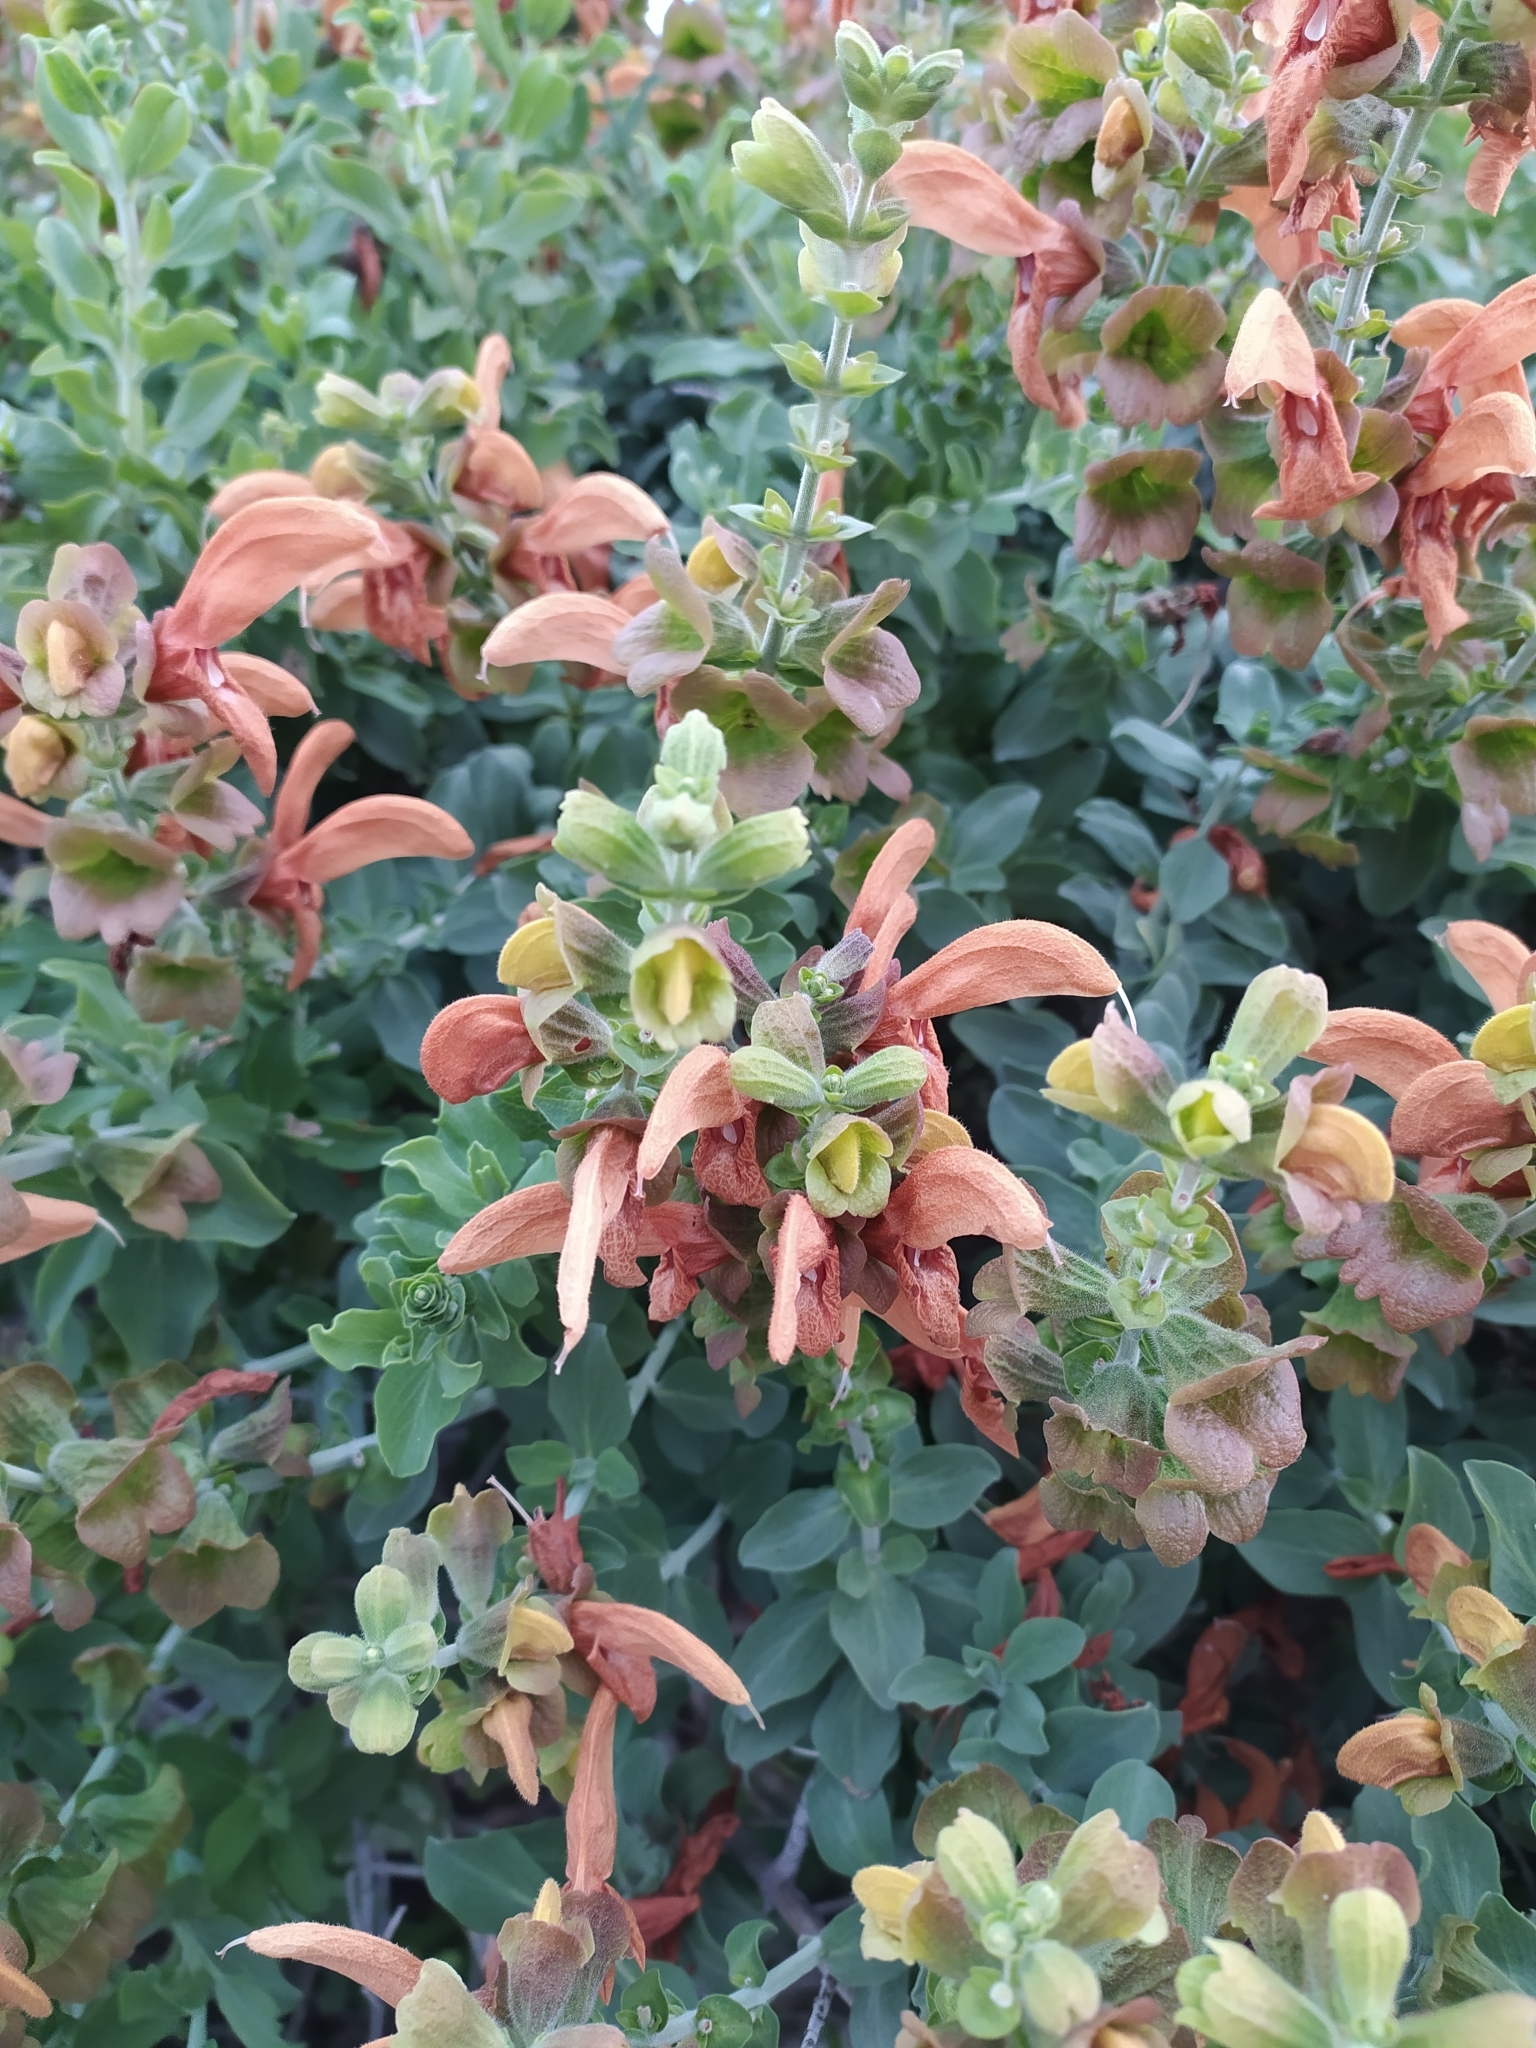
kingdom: Plantae
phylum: Tracheophyta
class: Magnoliopsida
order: Lamiales
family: Lamiaceae
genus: Salvia
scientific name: Salvia aurea
